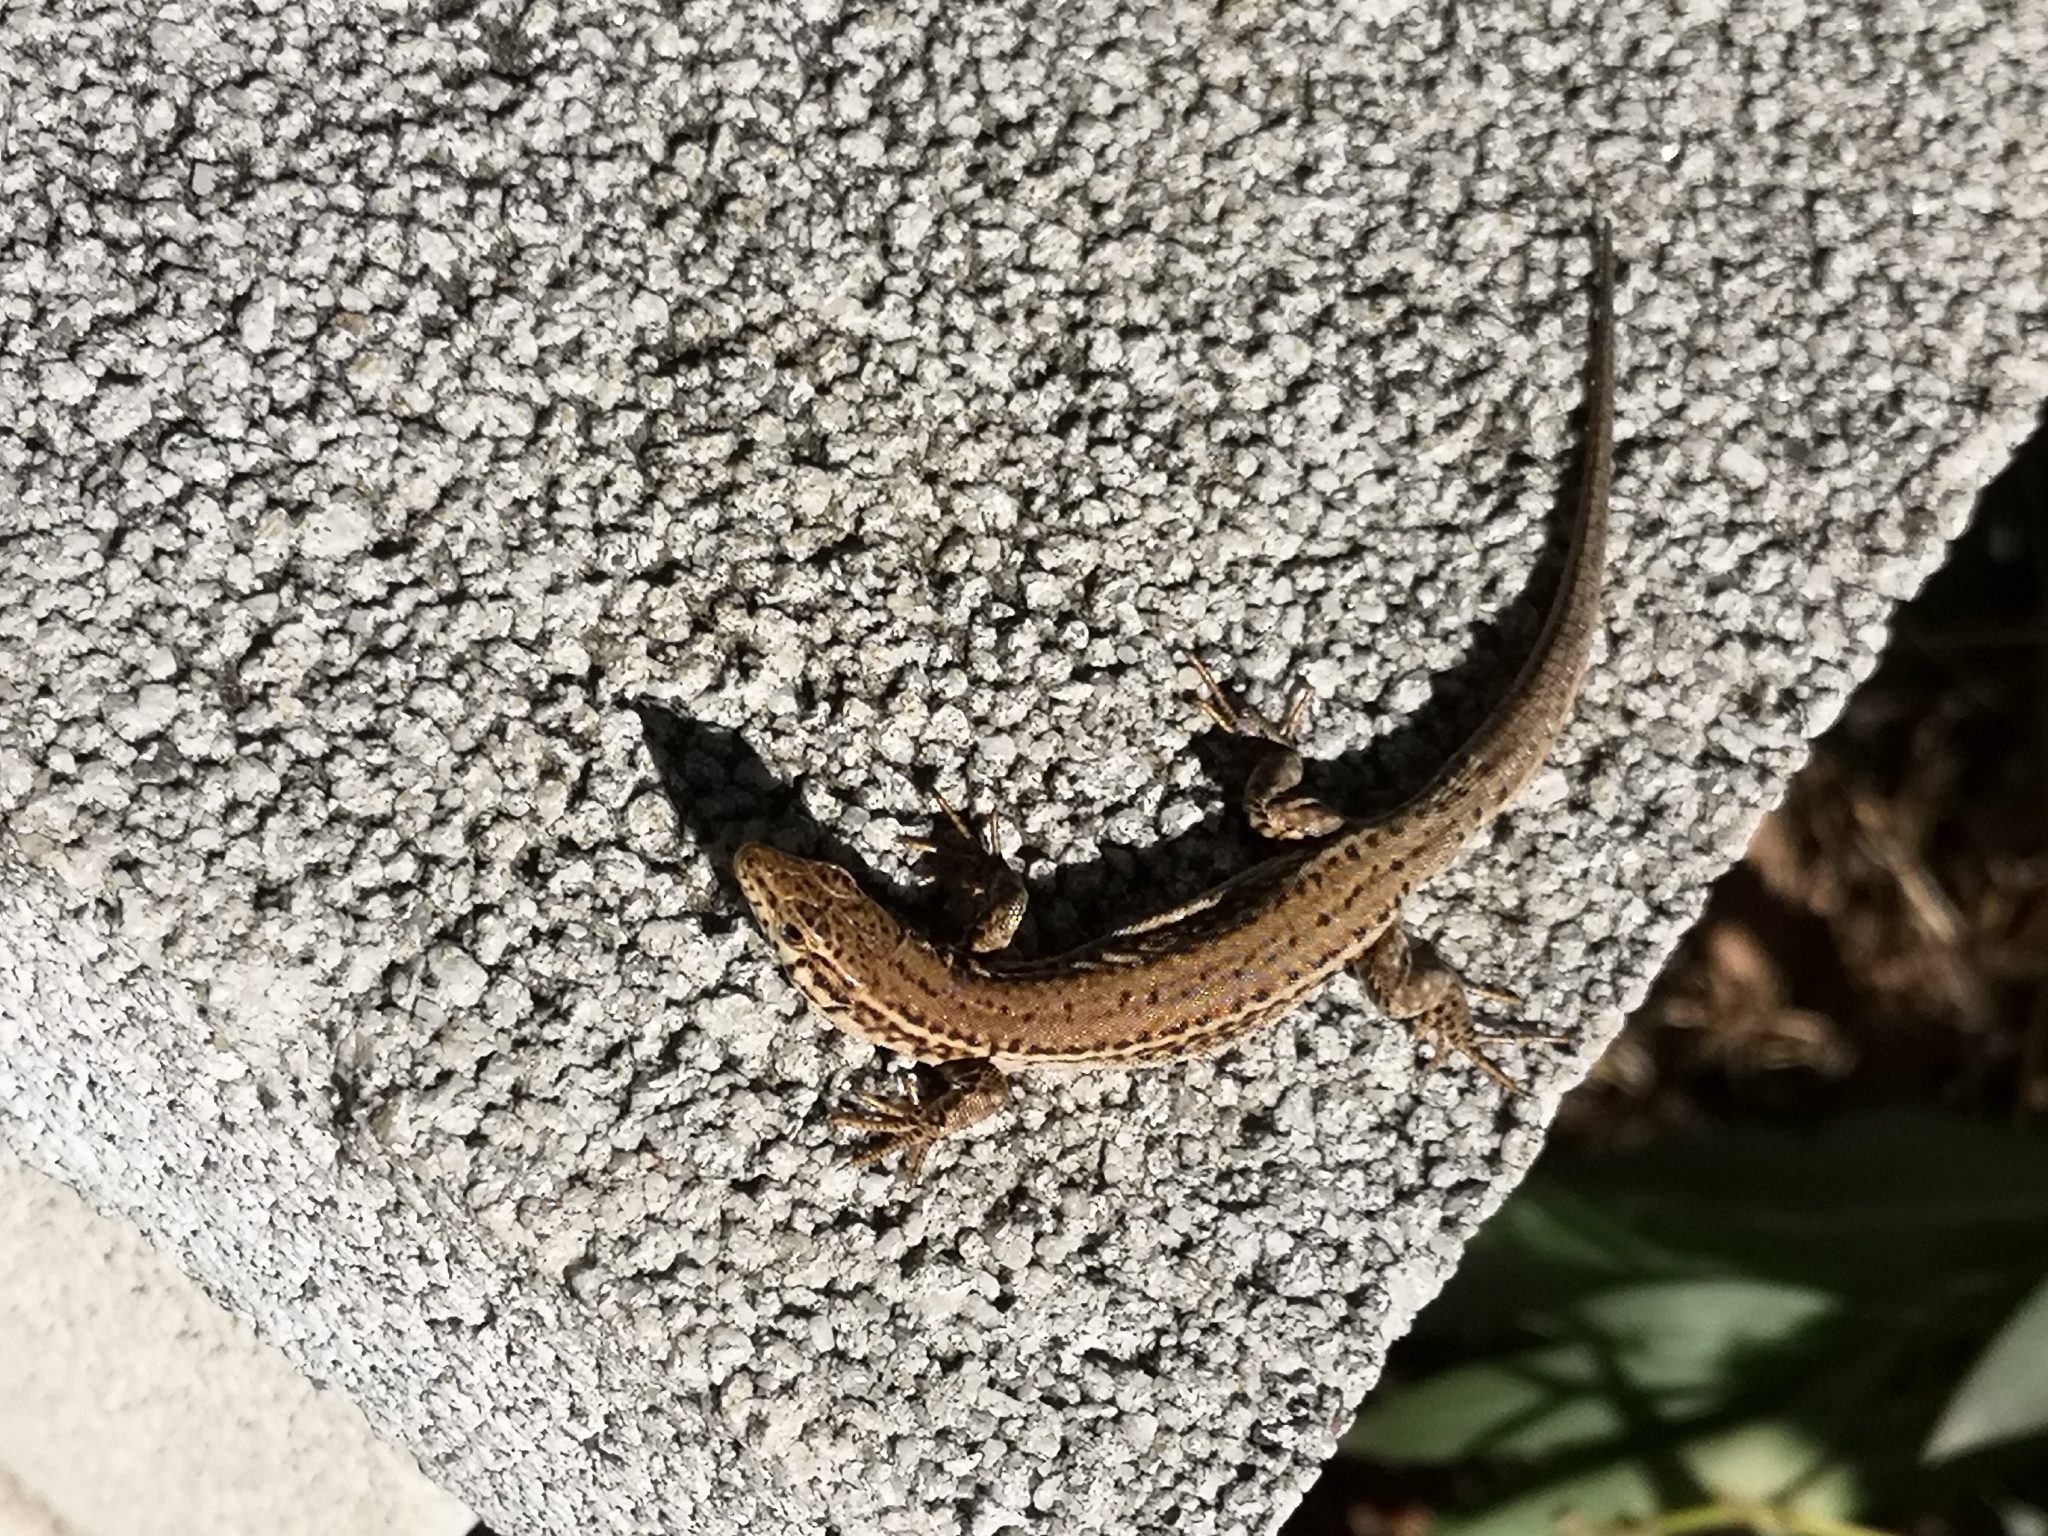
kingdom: Animalia
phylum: Chordata
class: Squamata
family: Lacertidae
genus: Podarcis
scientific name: Podarcis liolepis
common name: Catalonian wall lizard
